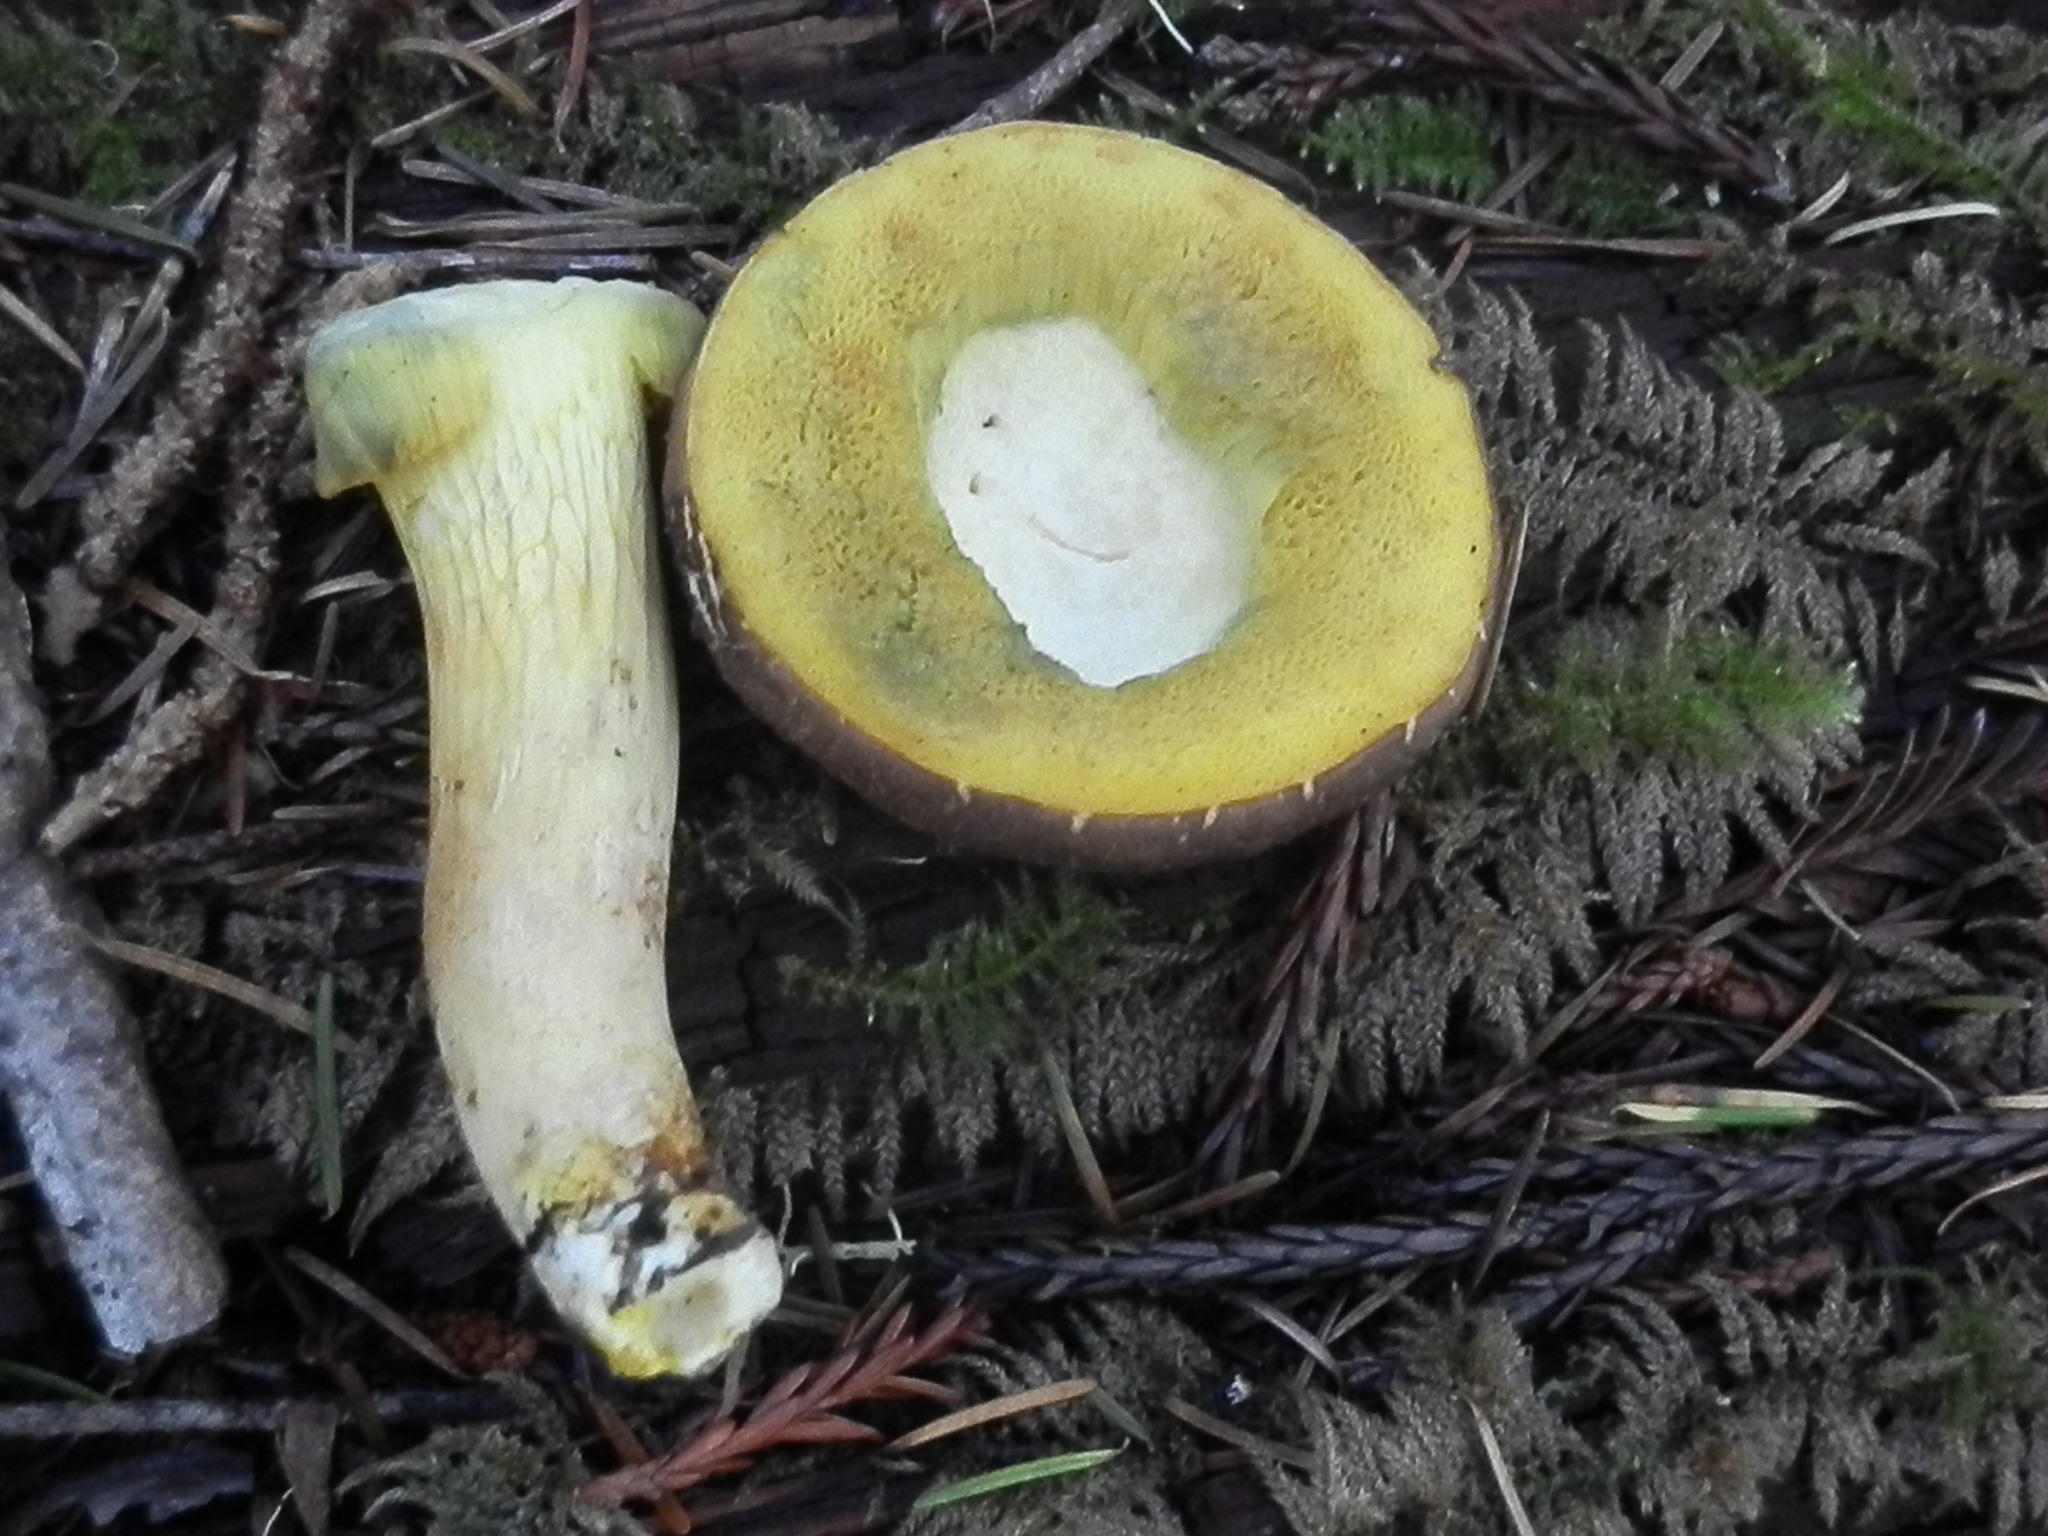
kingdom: Fungi
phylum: Basidiomycota
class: Agaricomycetes
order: Boletales
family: Boletaceae
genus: Xerocomus
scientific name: Xerocomus subtomentosus
